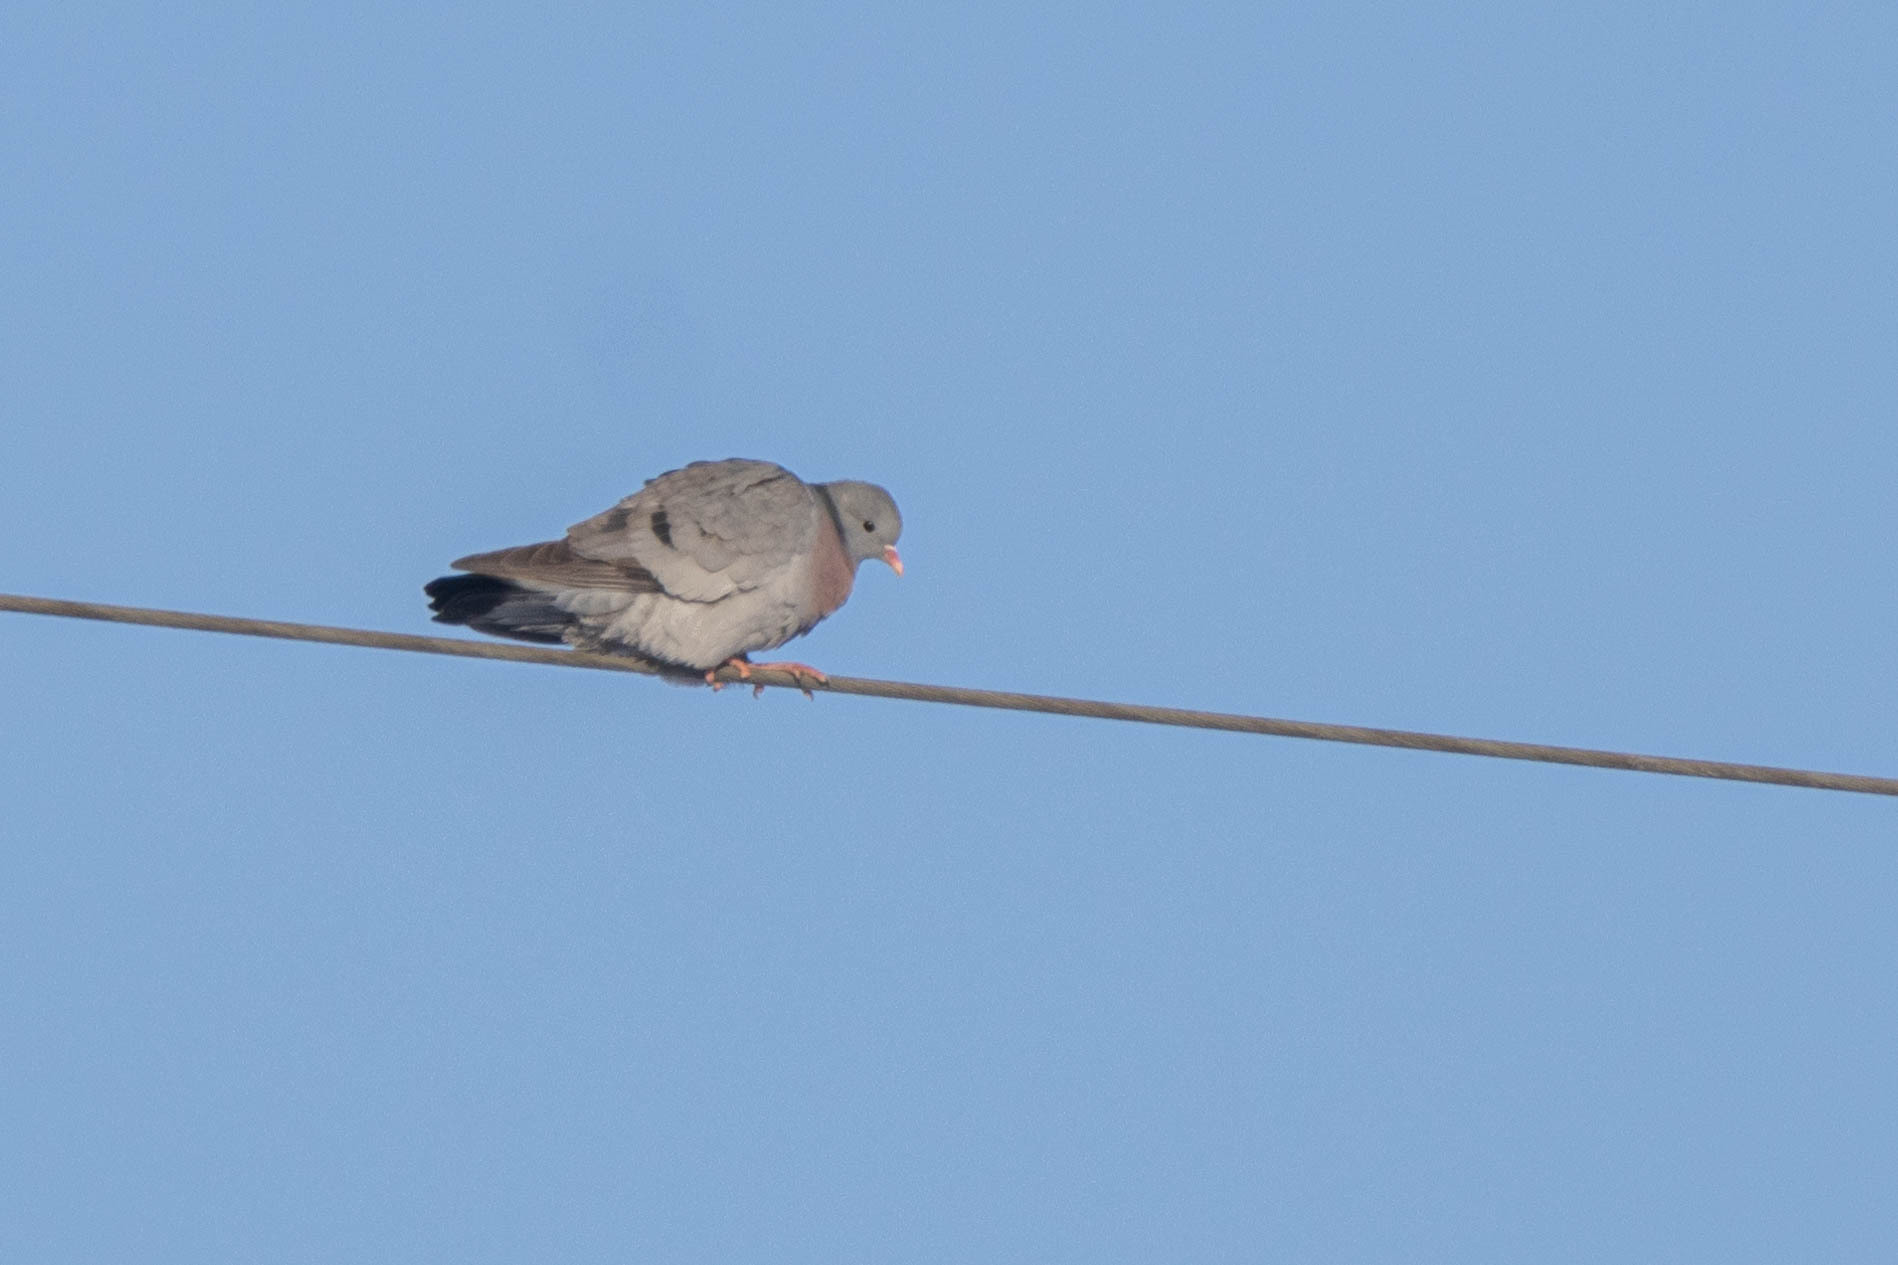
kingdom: Animalia
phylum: Chordata
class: Aves
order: Columbiformes
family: Columbidae
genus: Columba
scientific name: Columba oenas
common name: Stock dove
